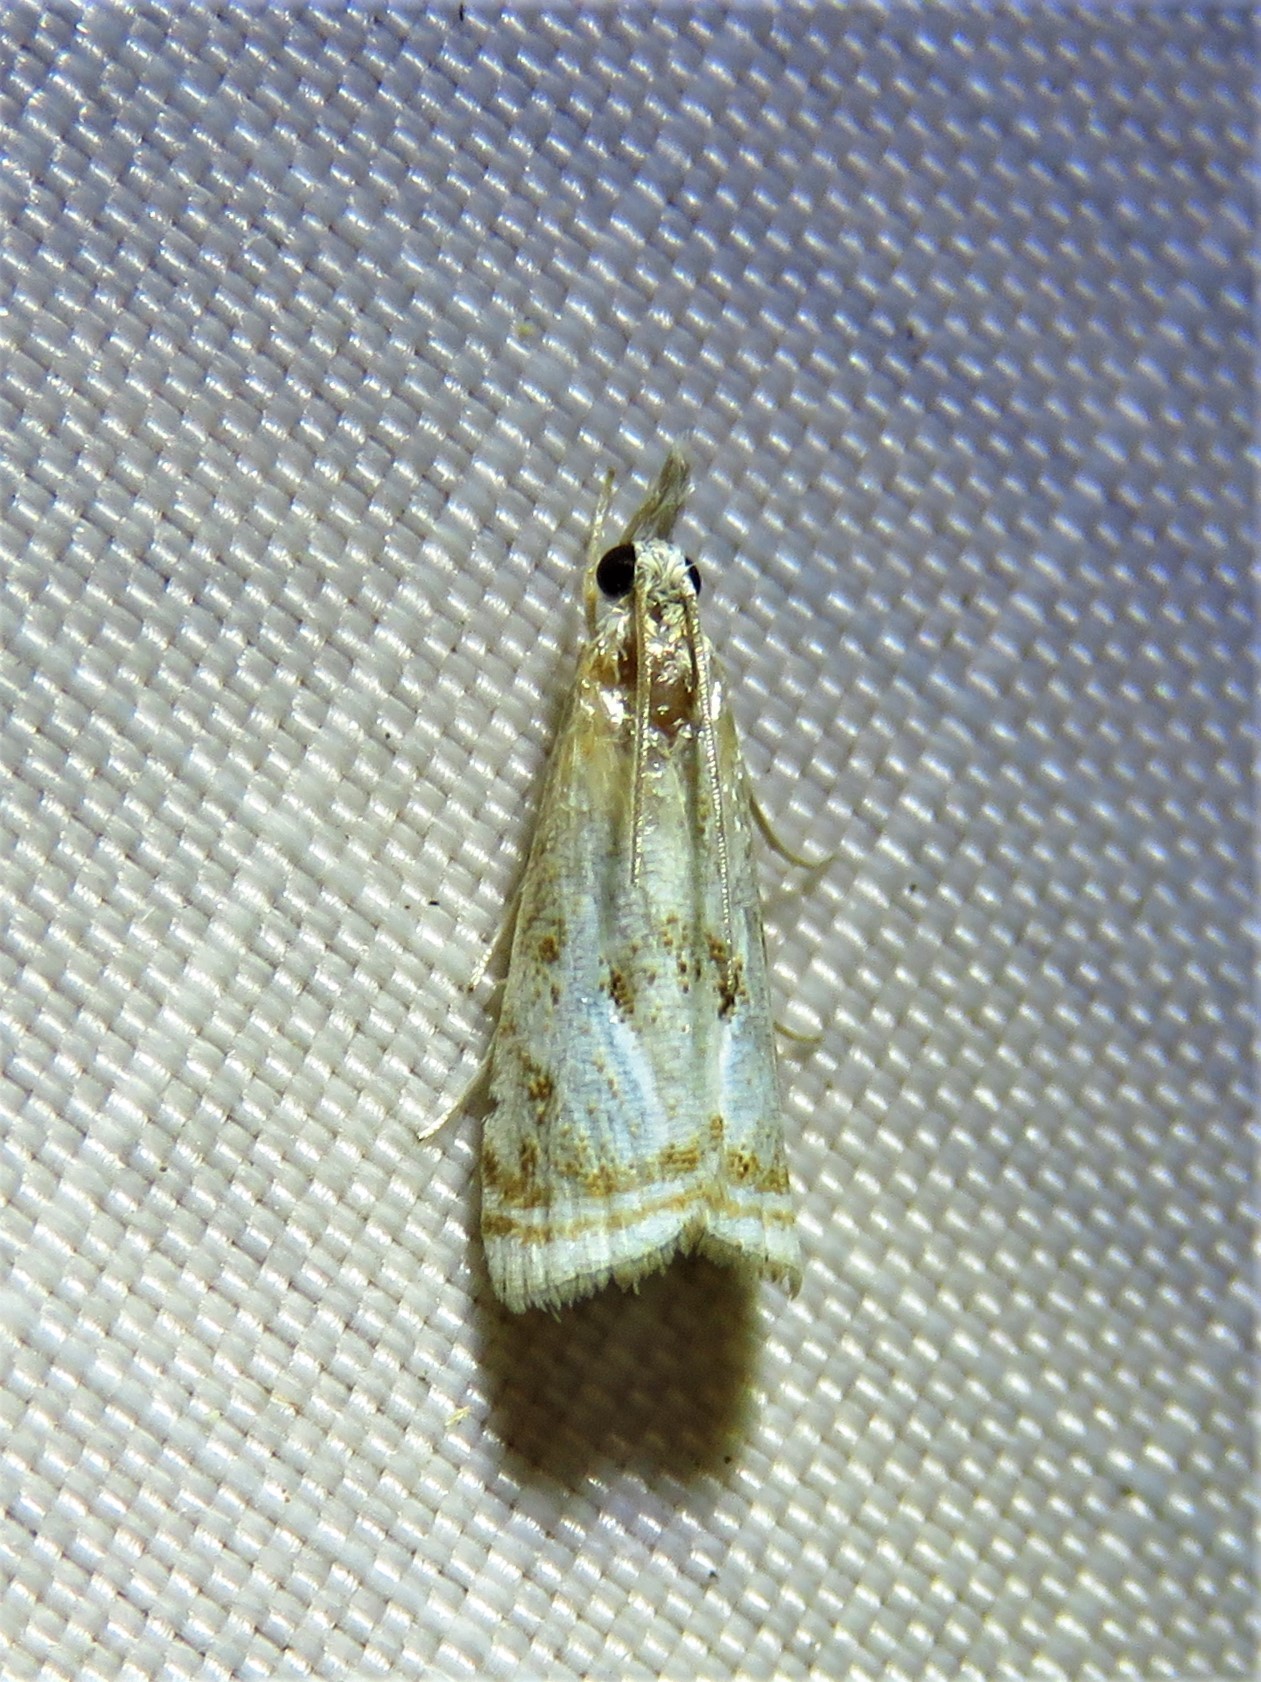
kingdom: Animalia
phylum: Arthropoda
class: Insecta
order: Lepidoptera
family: Crambidae
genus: Microcrambus
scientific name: Microcrambus elegans
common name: Elegant grass-veneer
